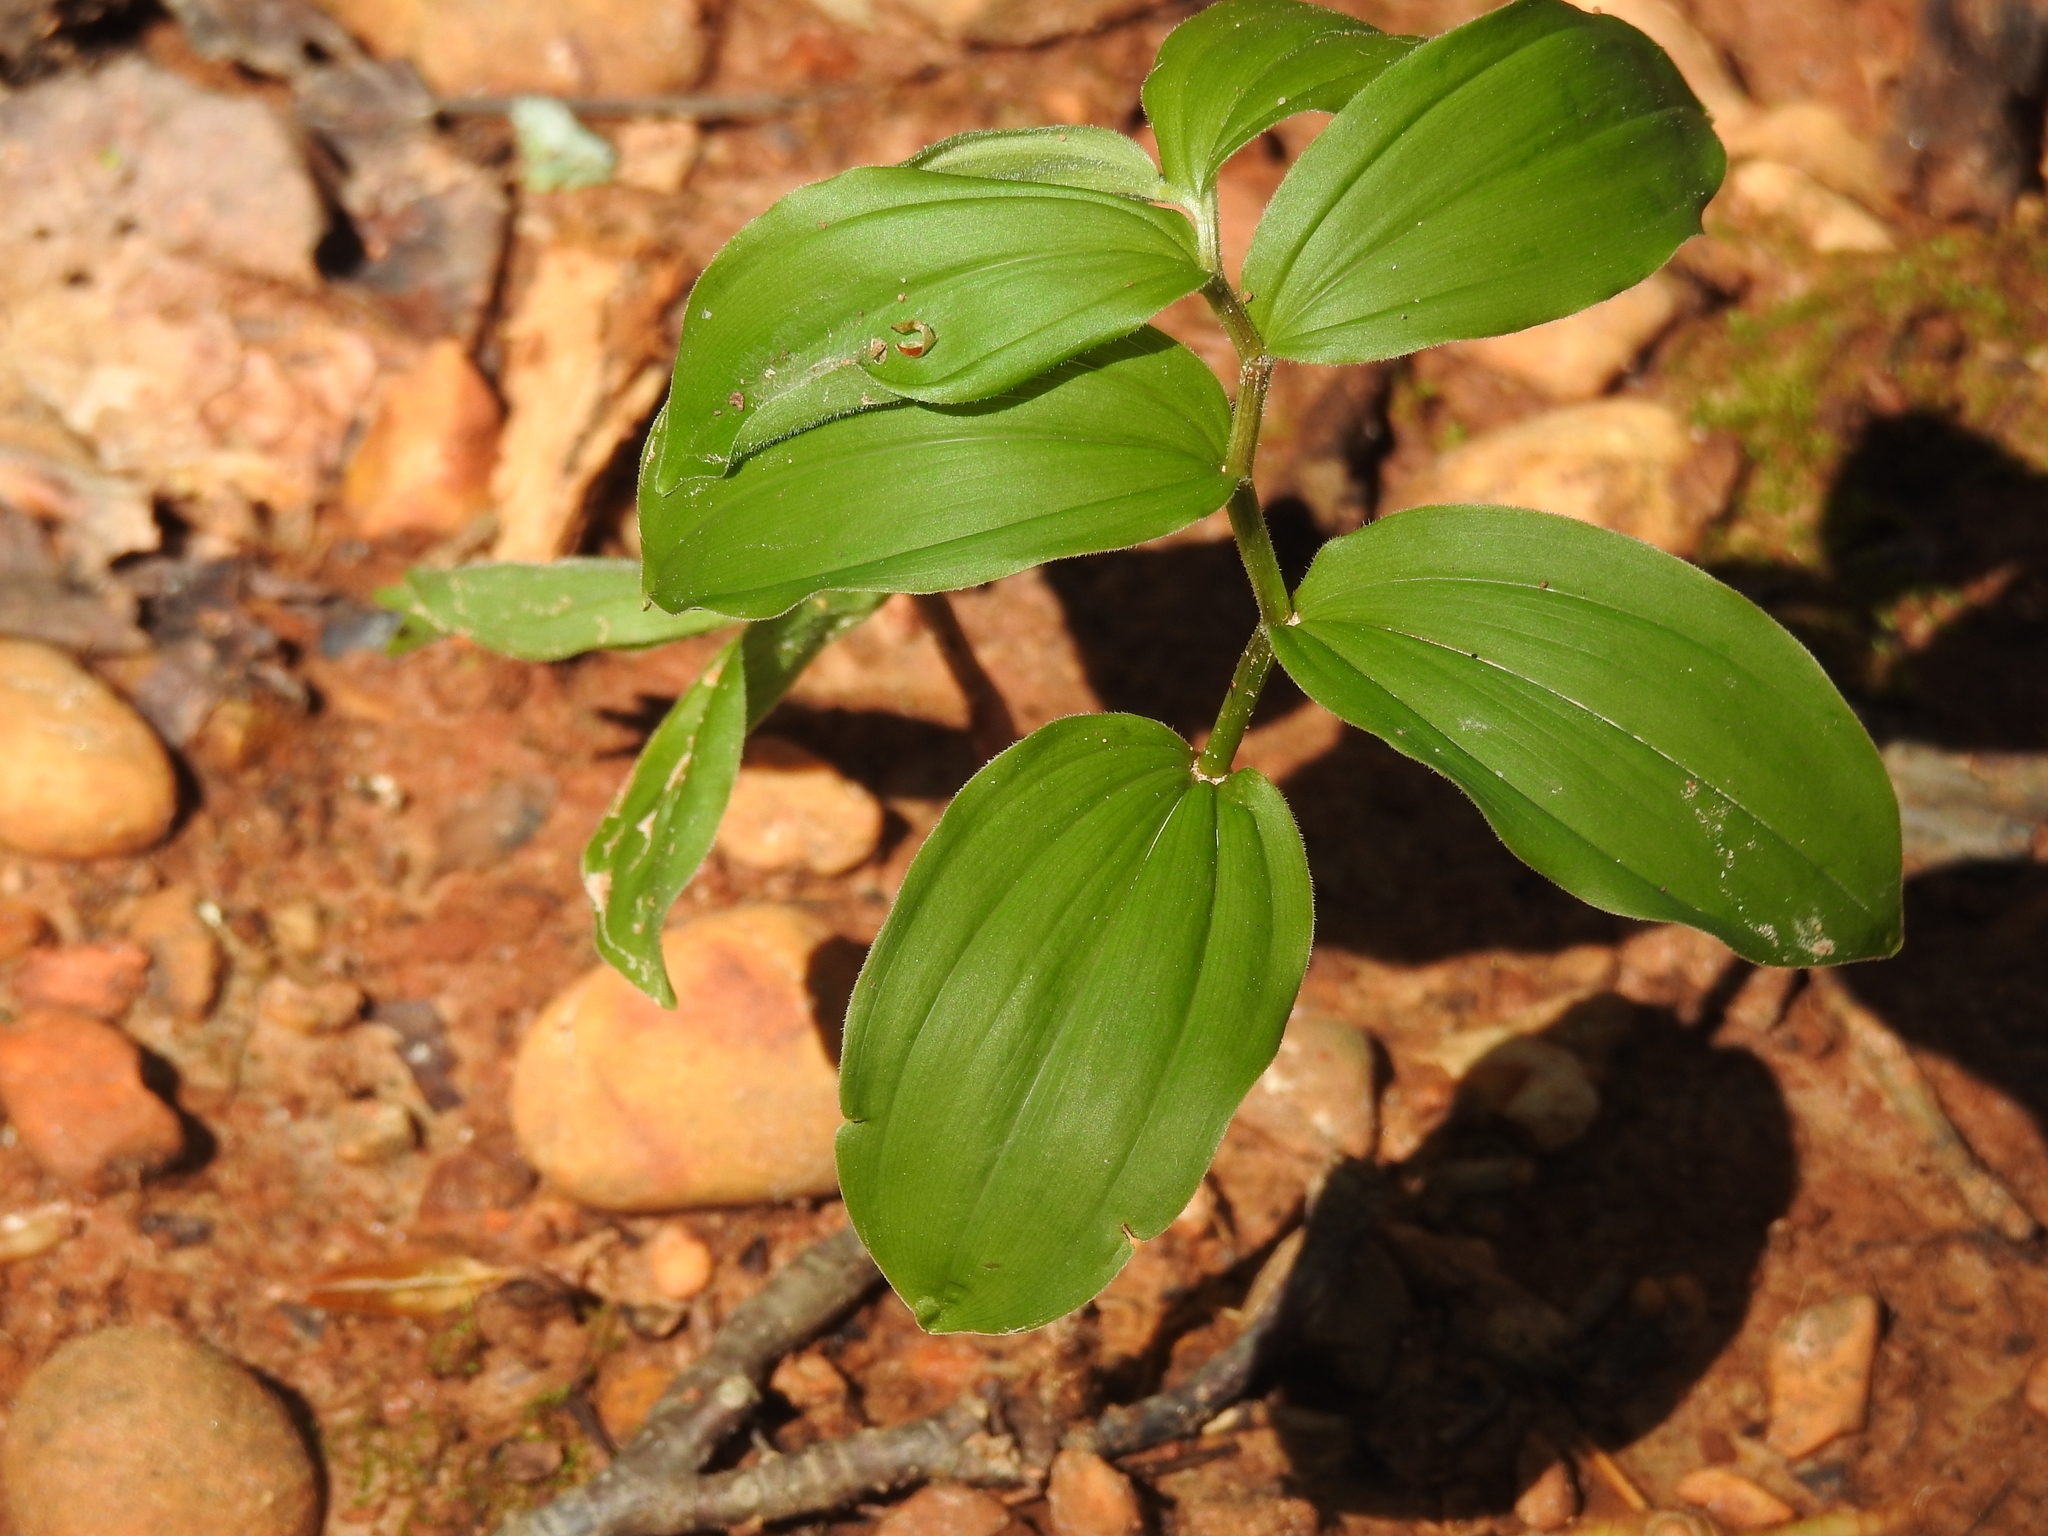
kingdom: Plantae
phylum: Tracheophyta
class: Liliopsida
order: Asparagales
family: Asparagaceae
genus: Maianthemum
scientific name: Maianthemum racemosum
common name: False spikenard
